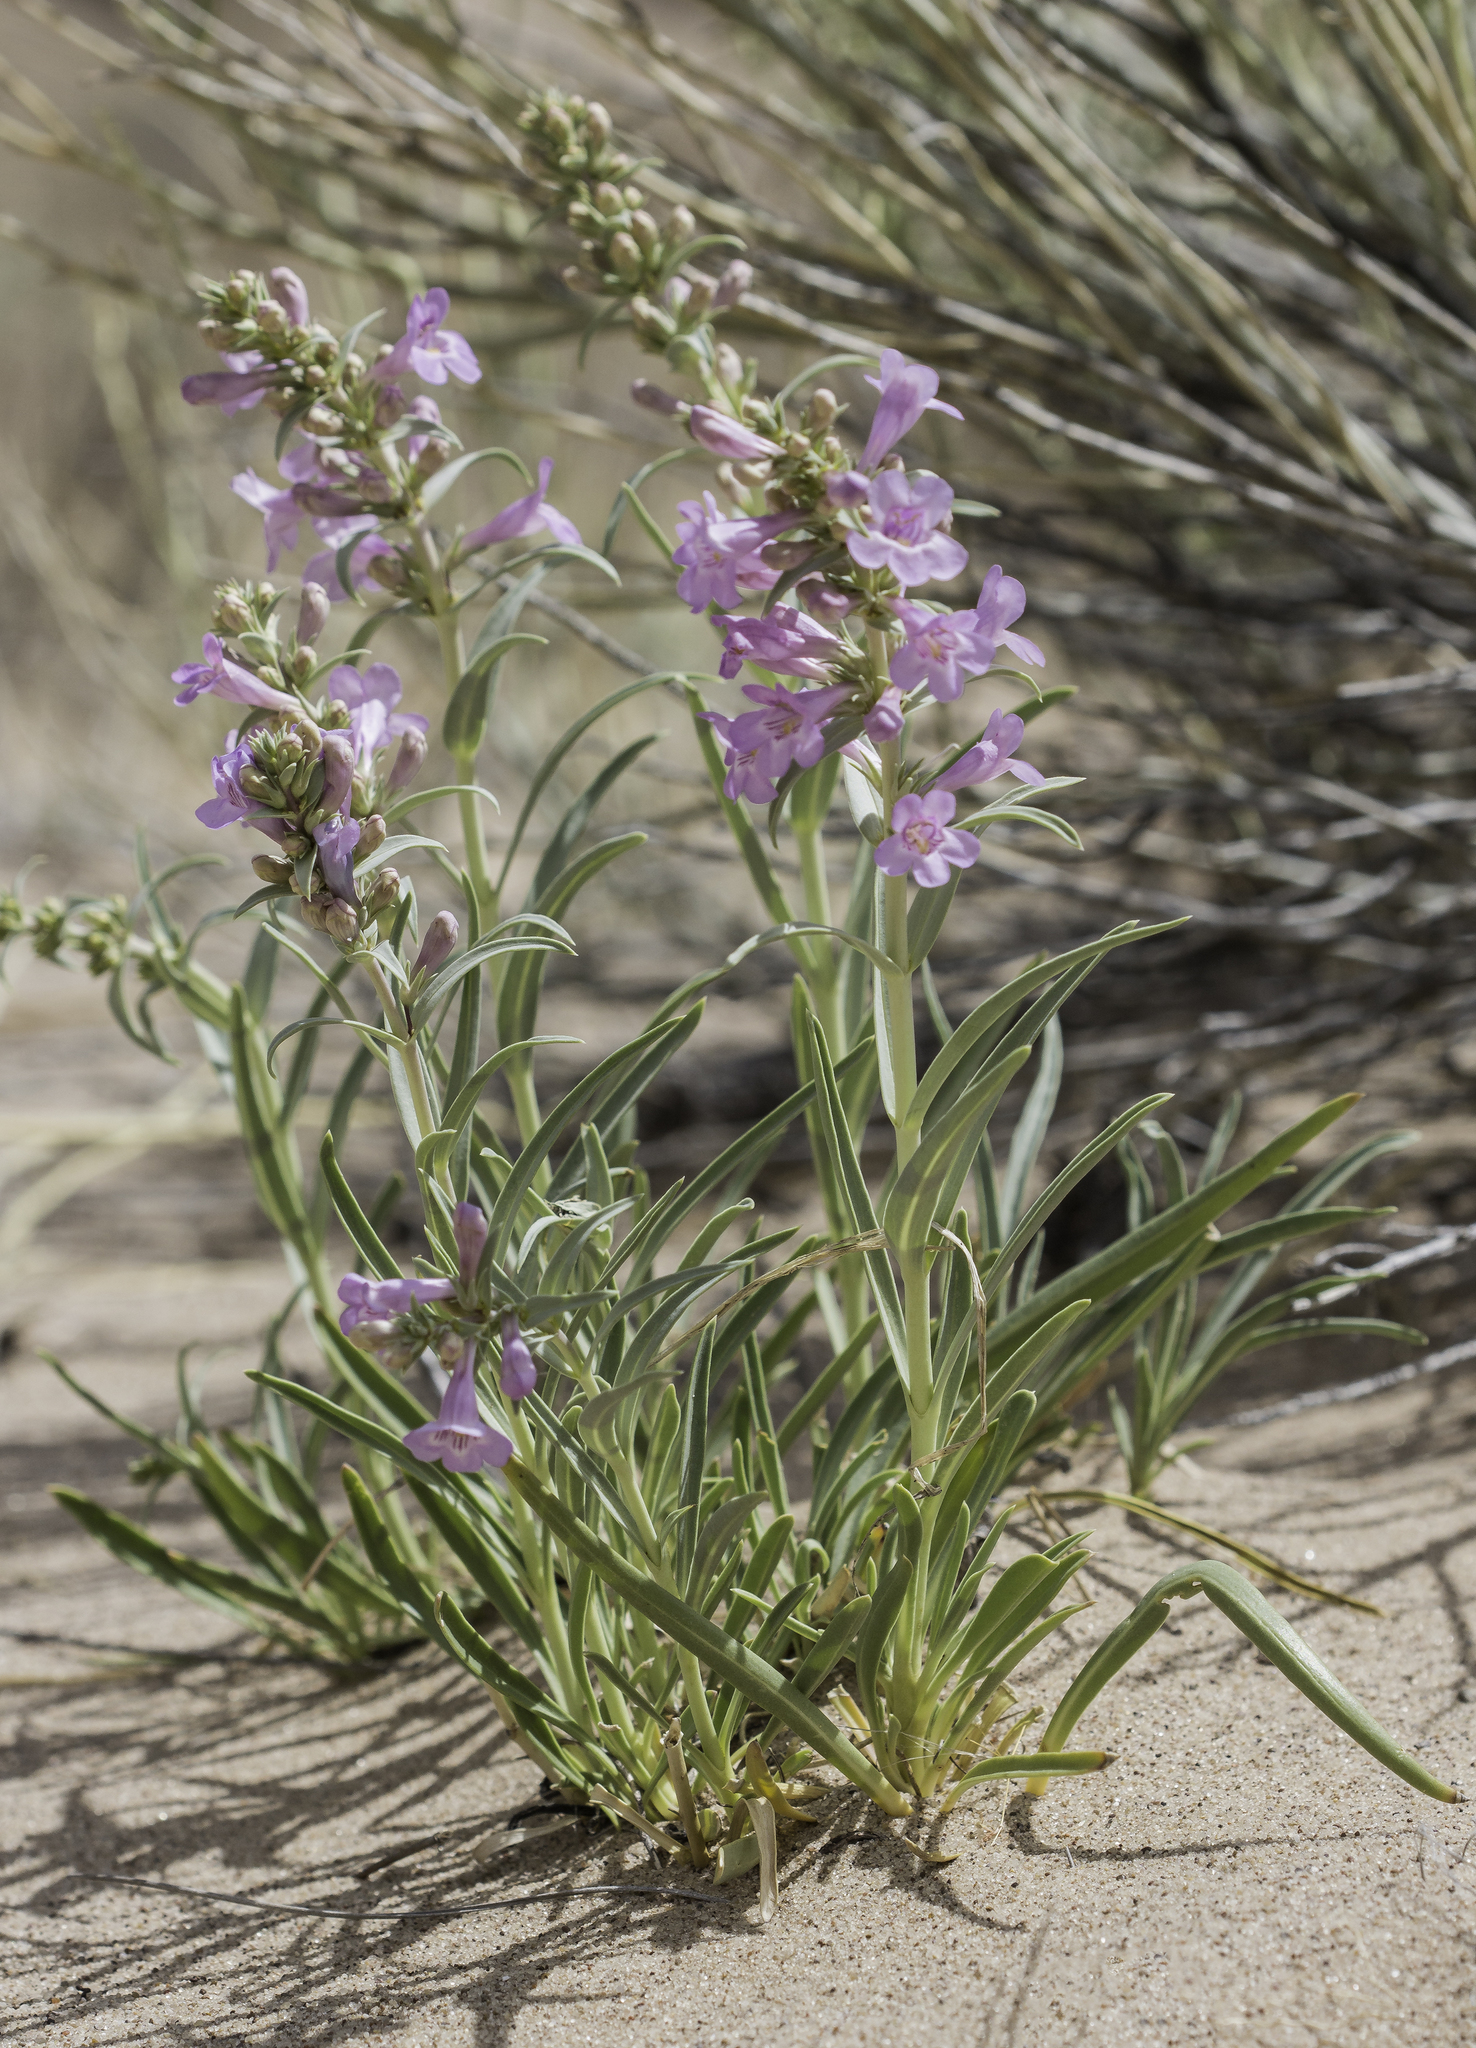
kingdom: Plantae
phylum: Tracheophyta
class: Magnoliopsida
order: Lamiales
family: Plantaginaceae
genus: Penstemon
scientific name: Penstemon angustifolius
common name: Narrow beardtongue
